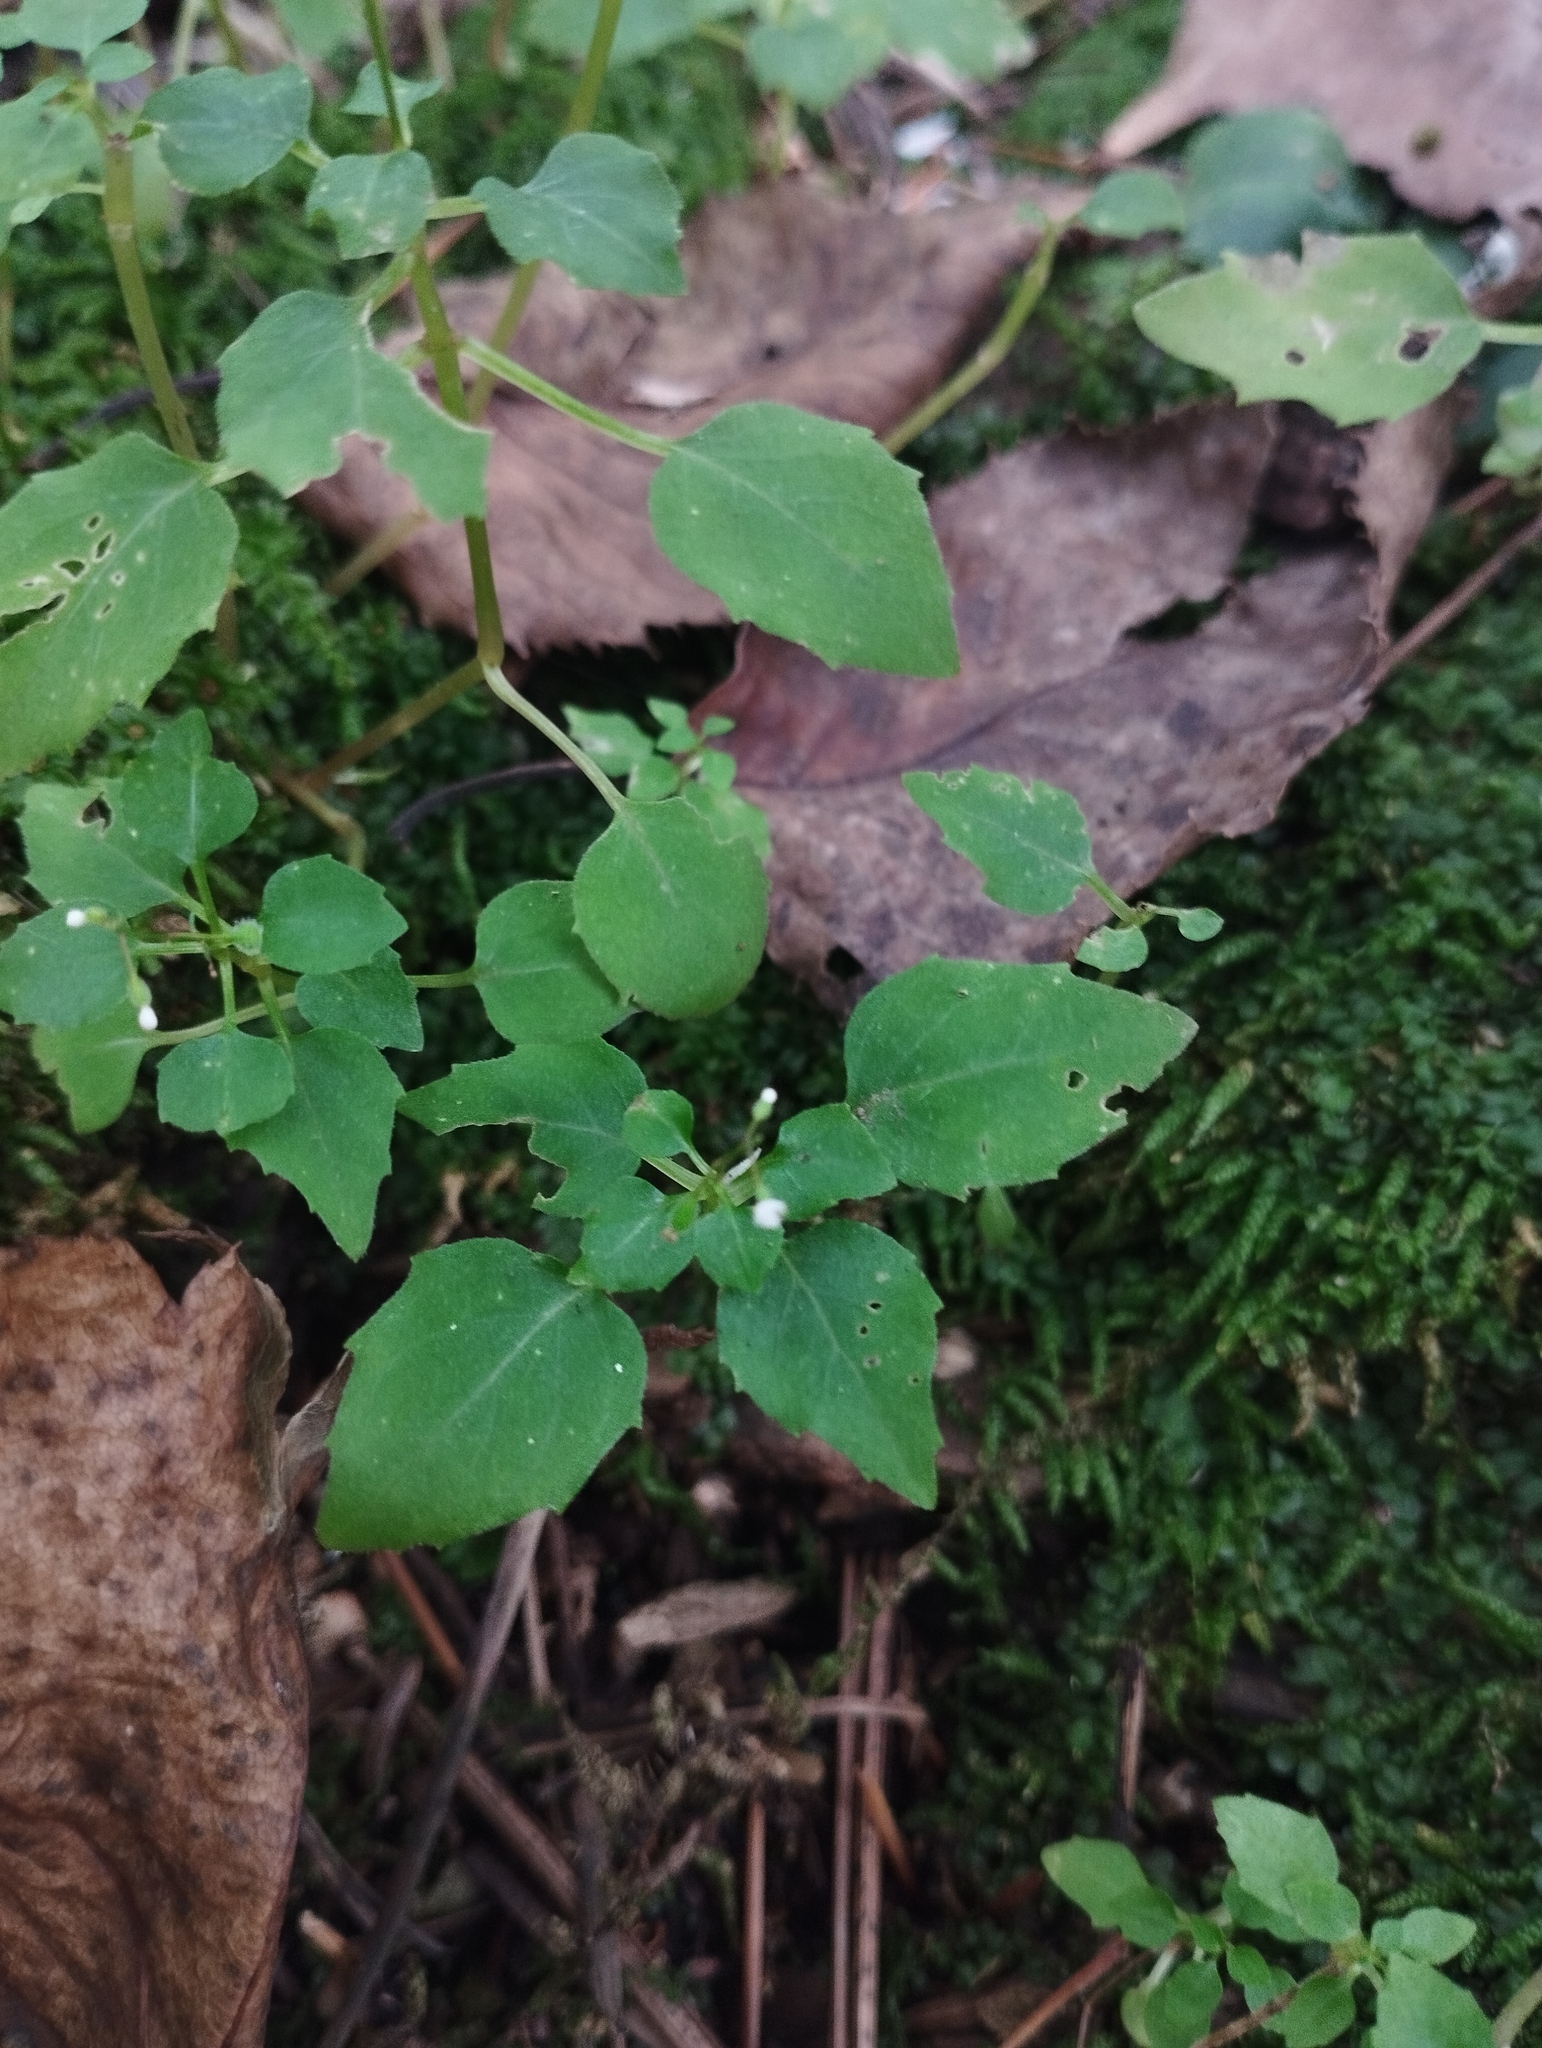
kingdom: Plantae
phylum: Tracheophyta
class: Magnoliopsida
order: Myrtales
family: Onagraceae
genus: Circaea
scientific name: Circaea alpina
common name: Alpine enchanter's-nightshade
